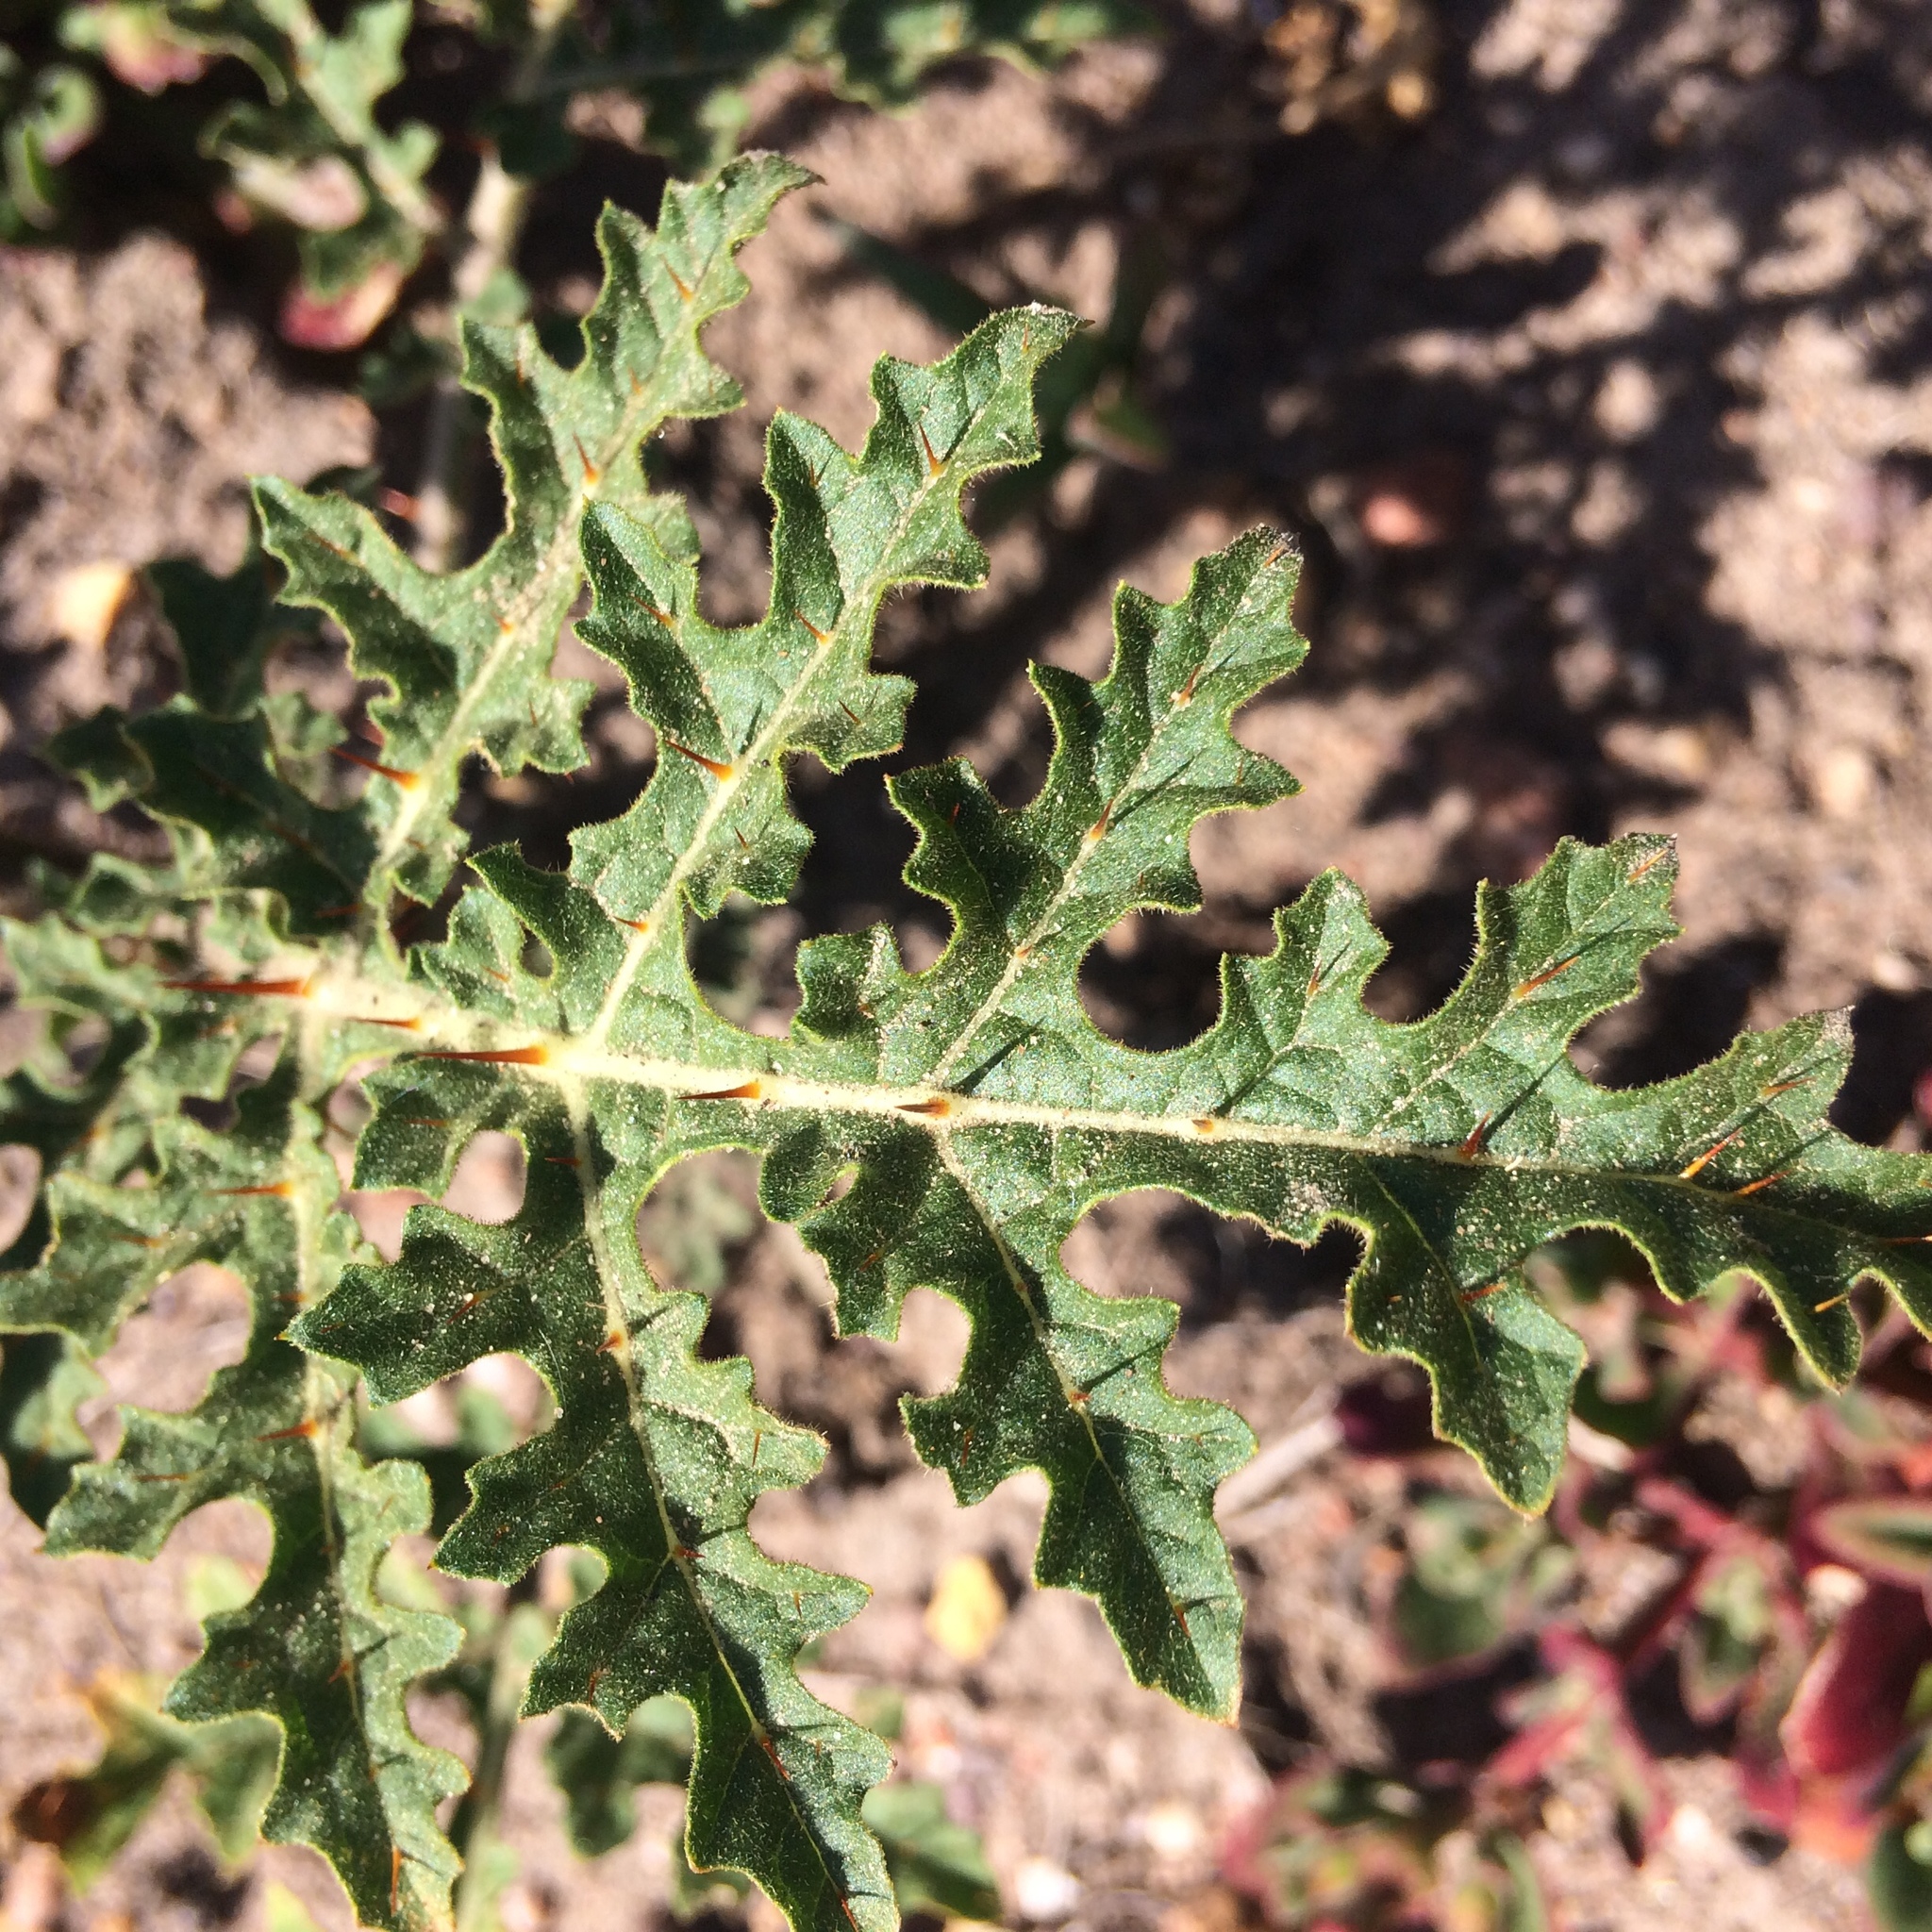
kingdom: Plantae
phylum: Tracheophyta
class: Magnoliopsida
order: Solanales
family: Solanaceae
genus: Solanum
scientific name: Solanum sisymbriifolium
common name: Red buffalo-bur
